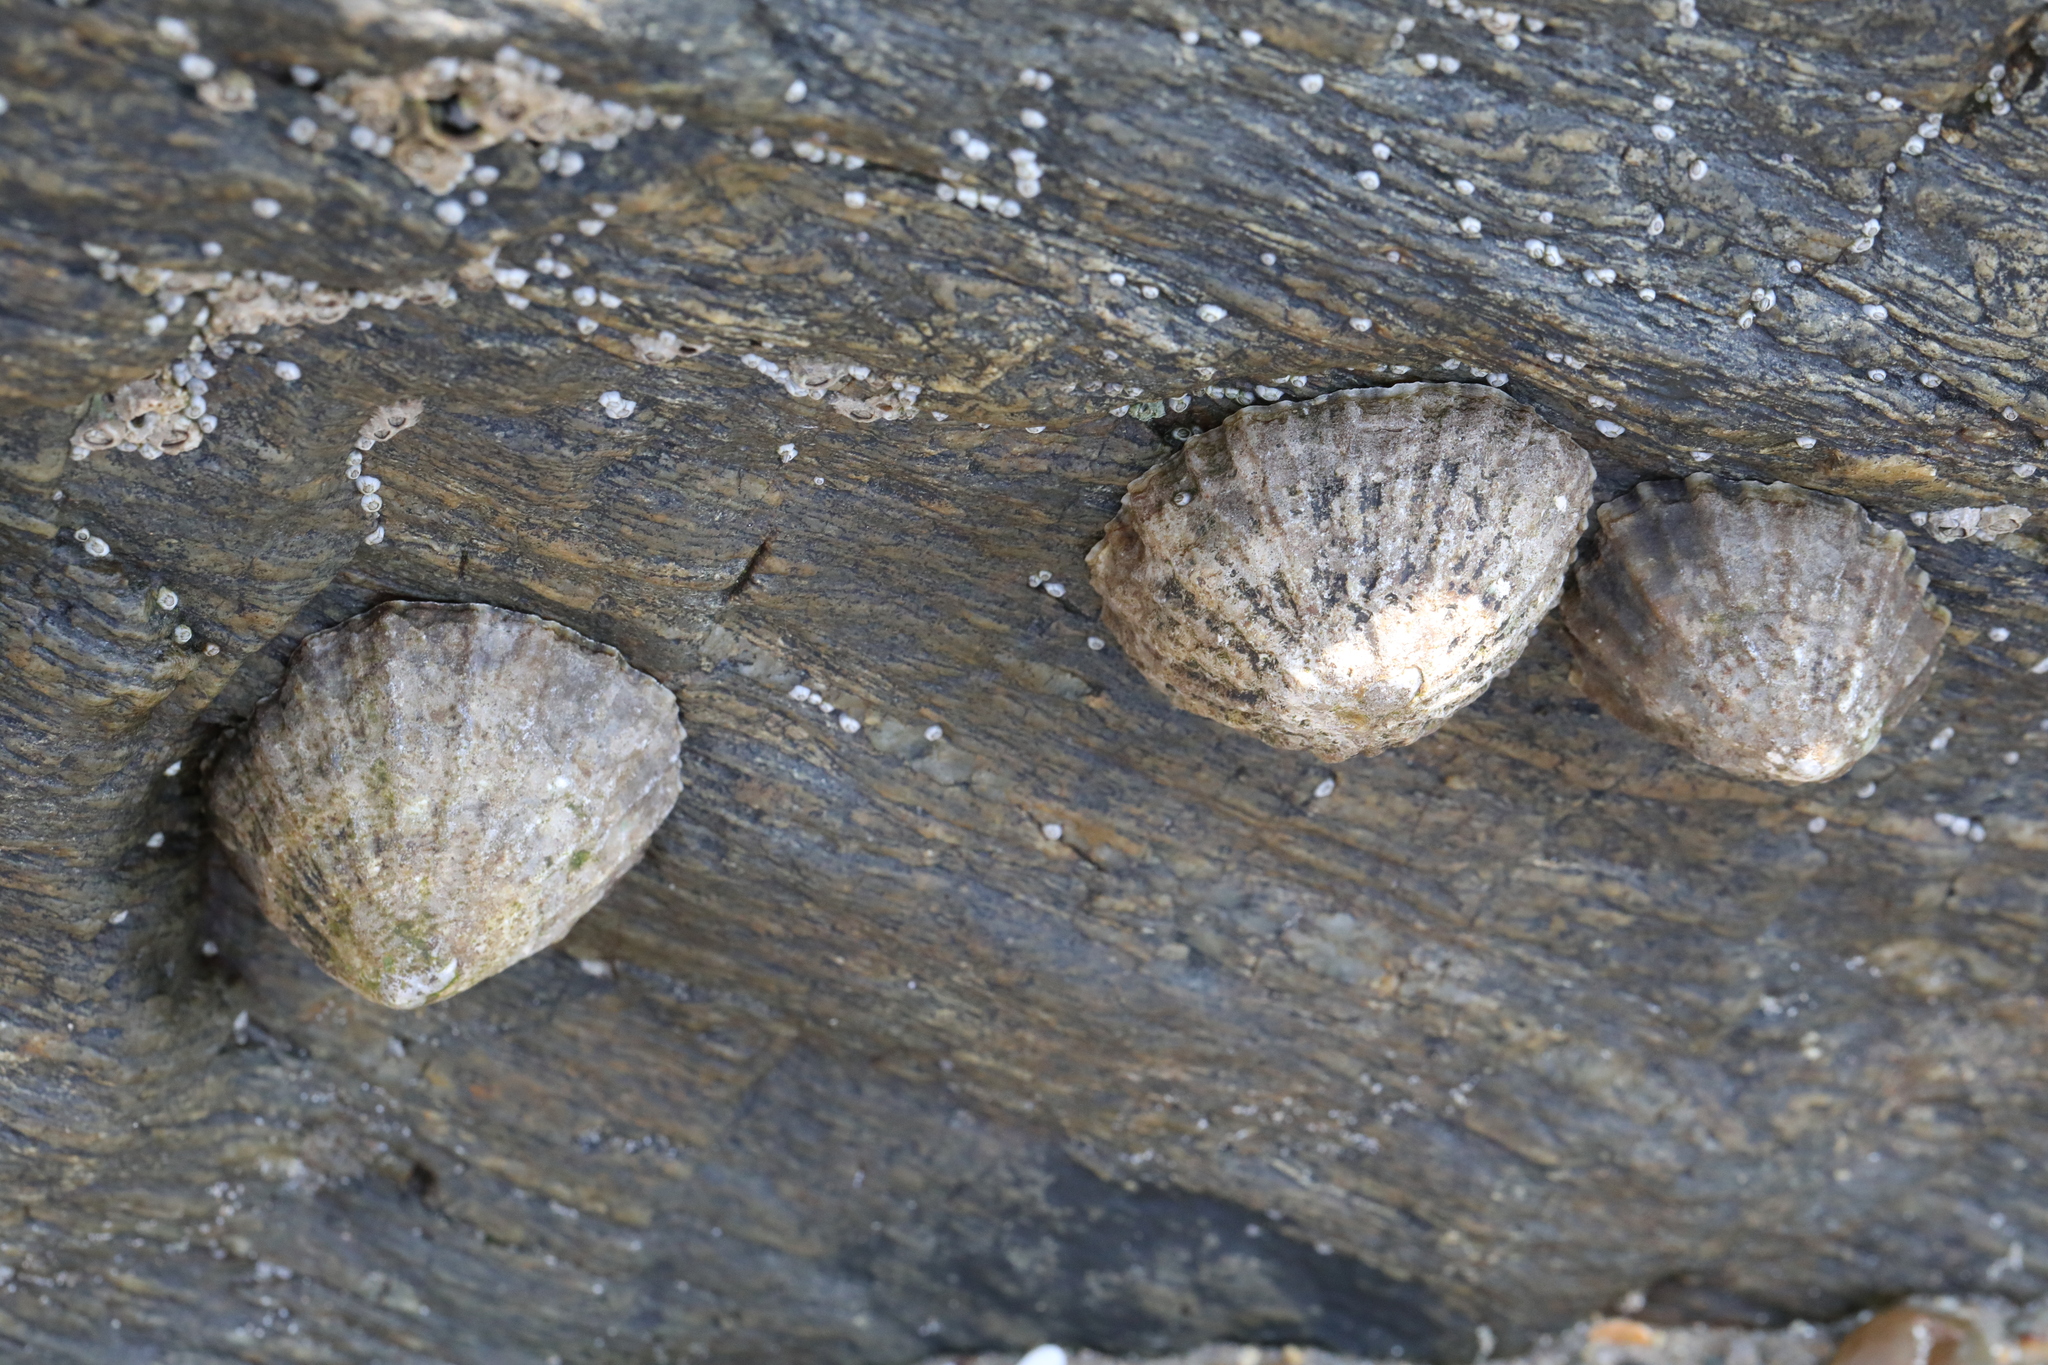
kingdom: Animalia
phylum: Mollusca
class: Gastropoda
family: Patellidae
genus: Patella
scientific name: Patella vulgata
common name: Common limpet
